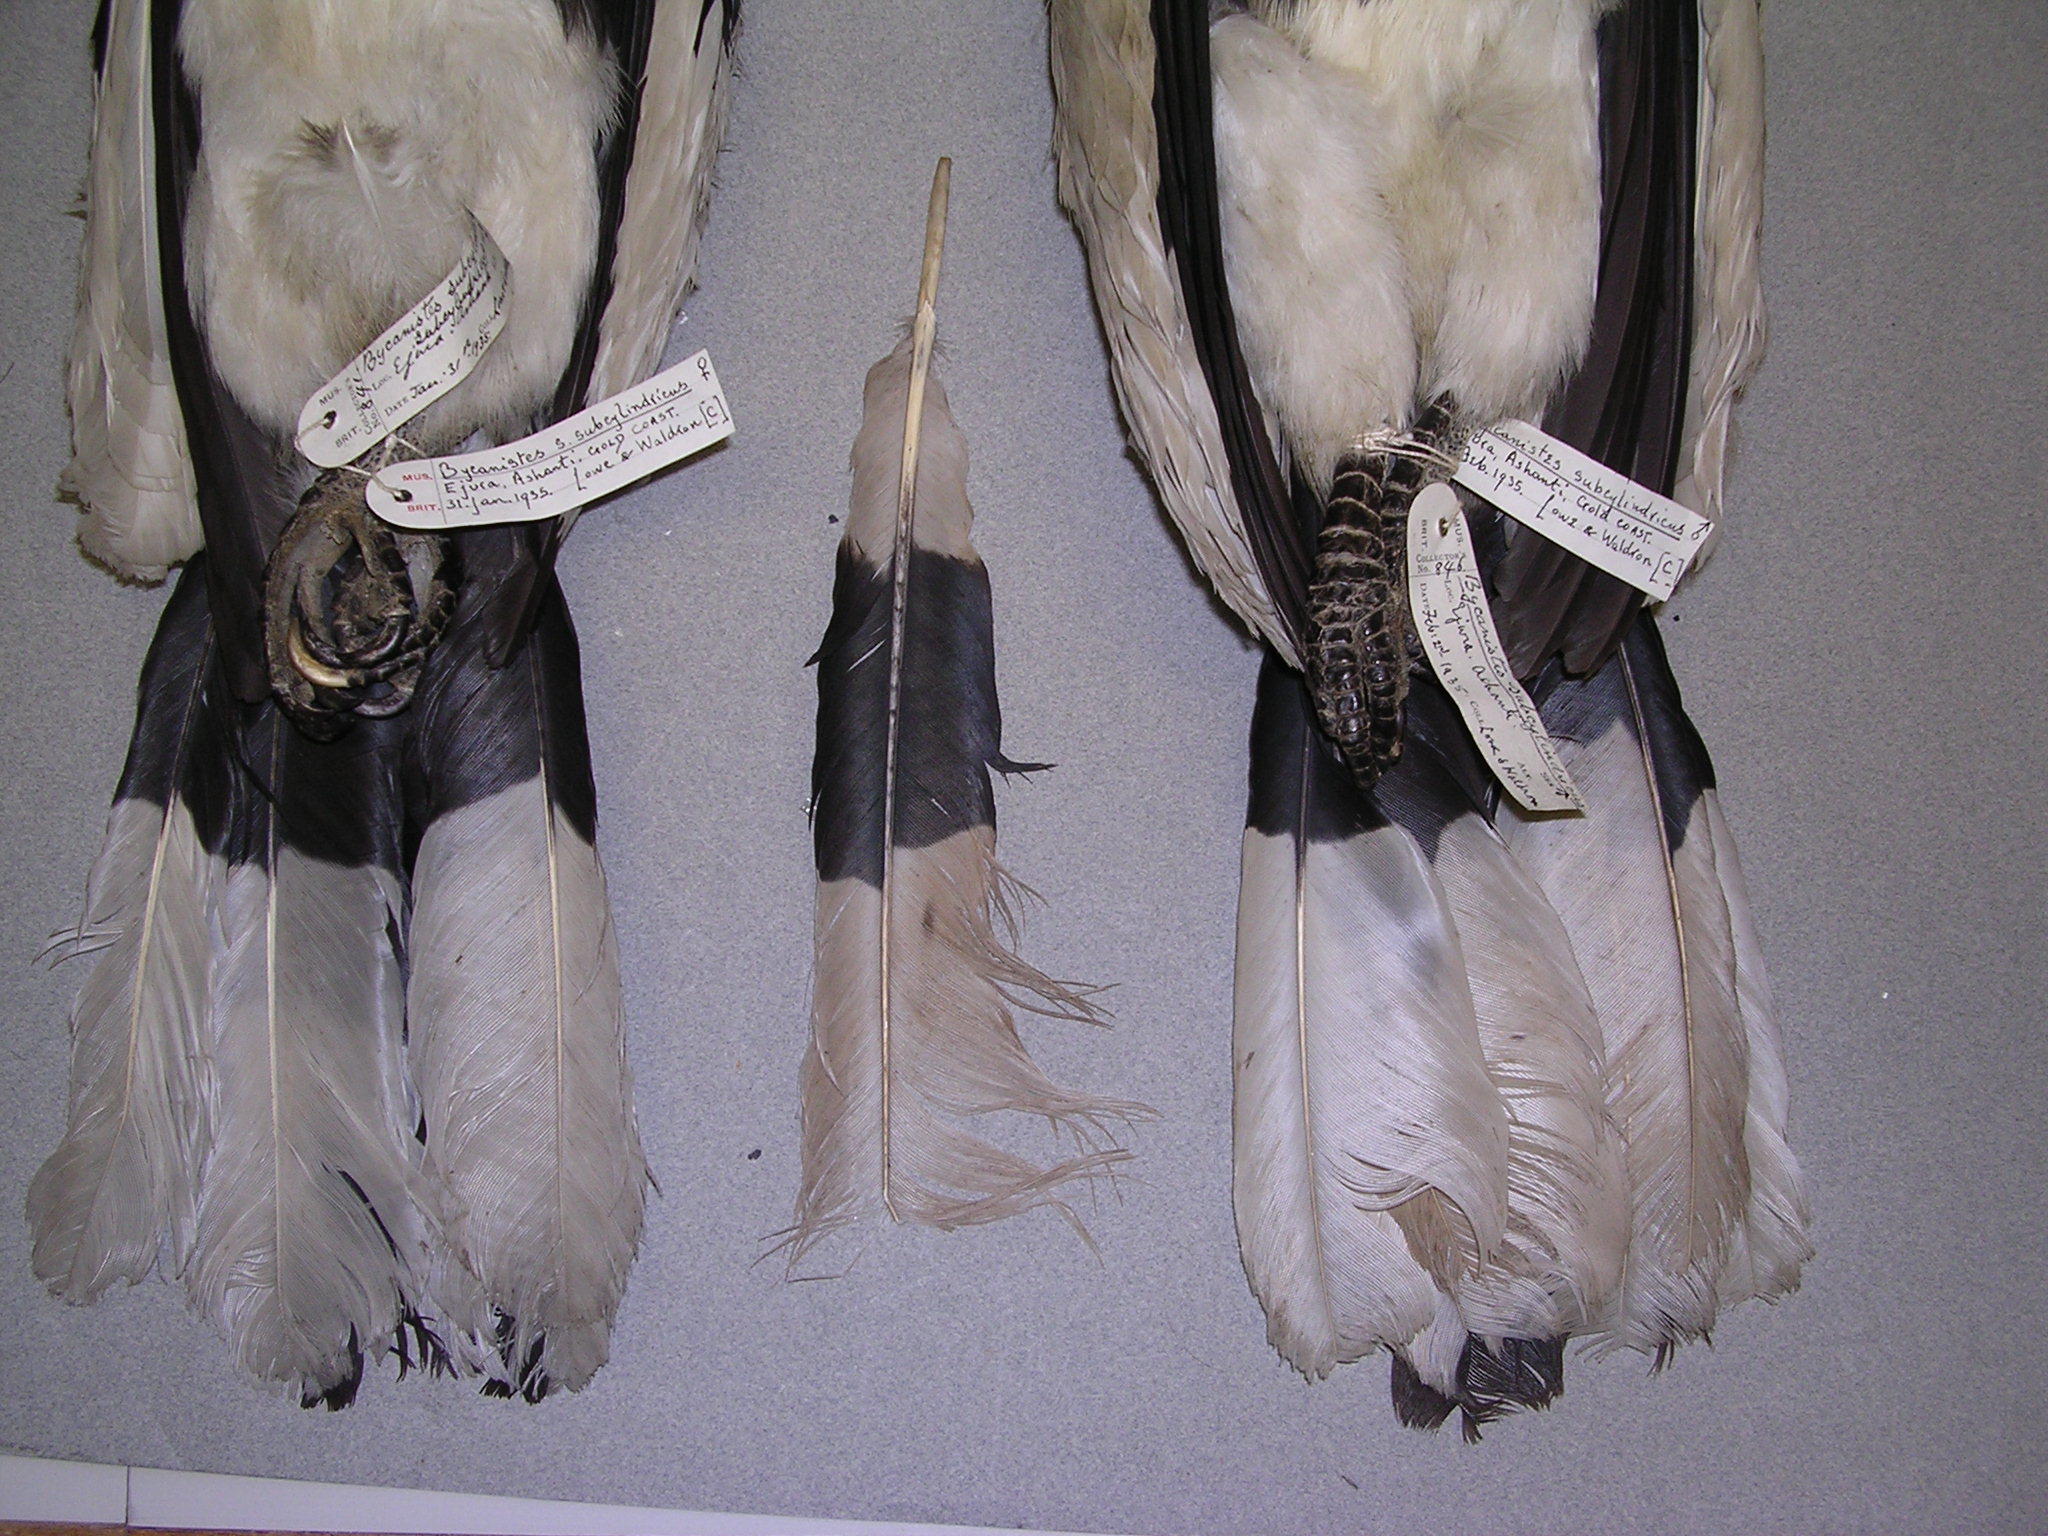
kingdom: Animalia
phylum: Chordata
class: Aves
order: Bucerotiformes
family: Bucerotidae
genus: Bycanistes
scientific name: Bycanistes cylindricus
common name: Brown-cheeked hornbill
